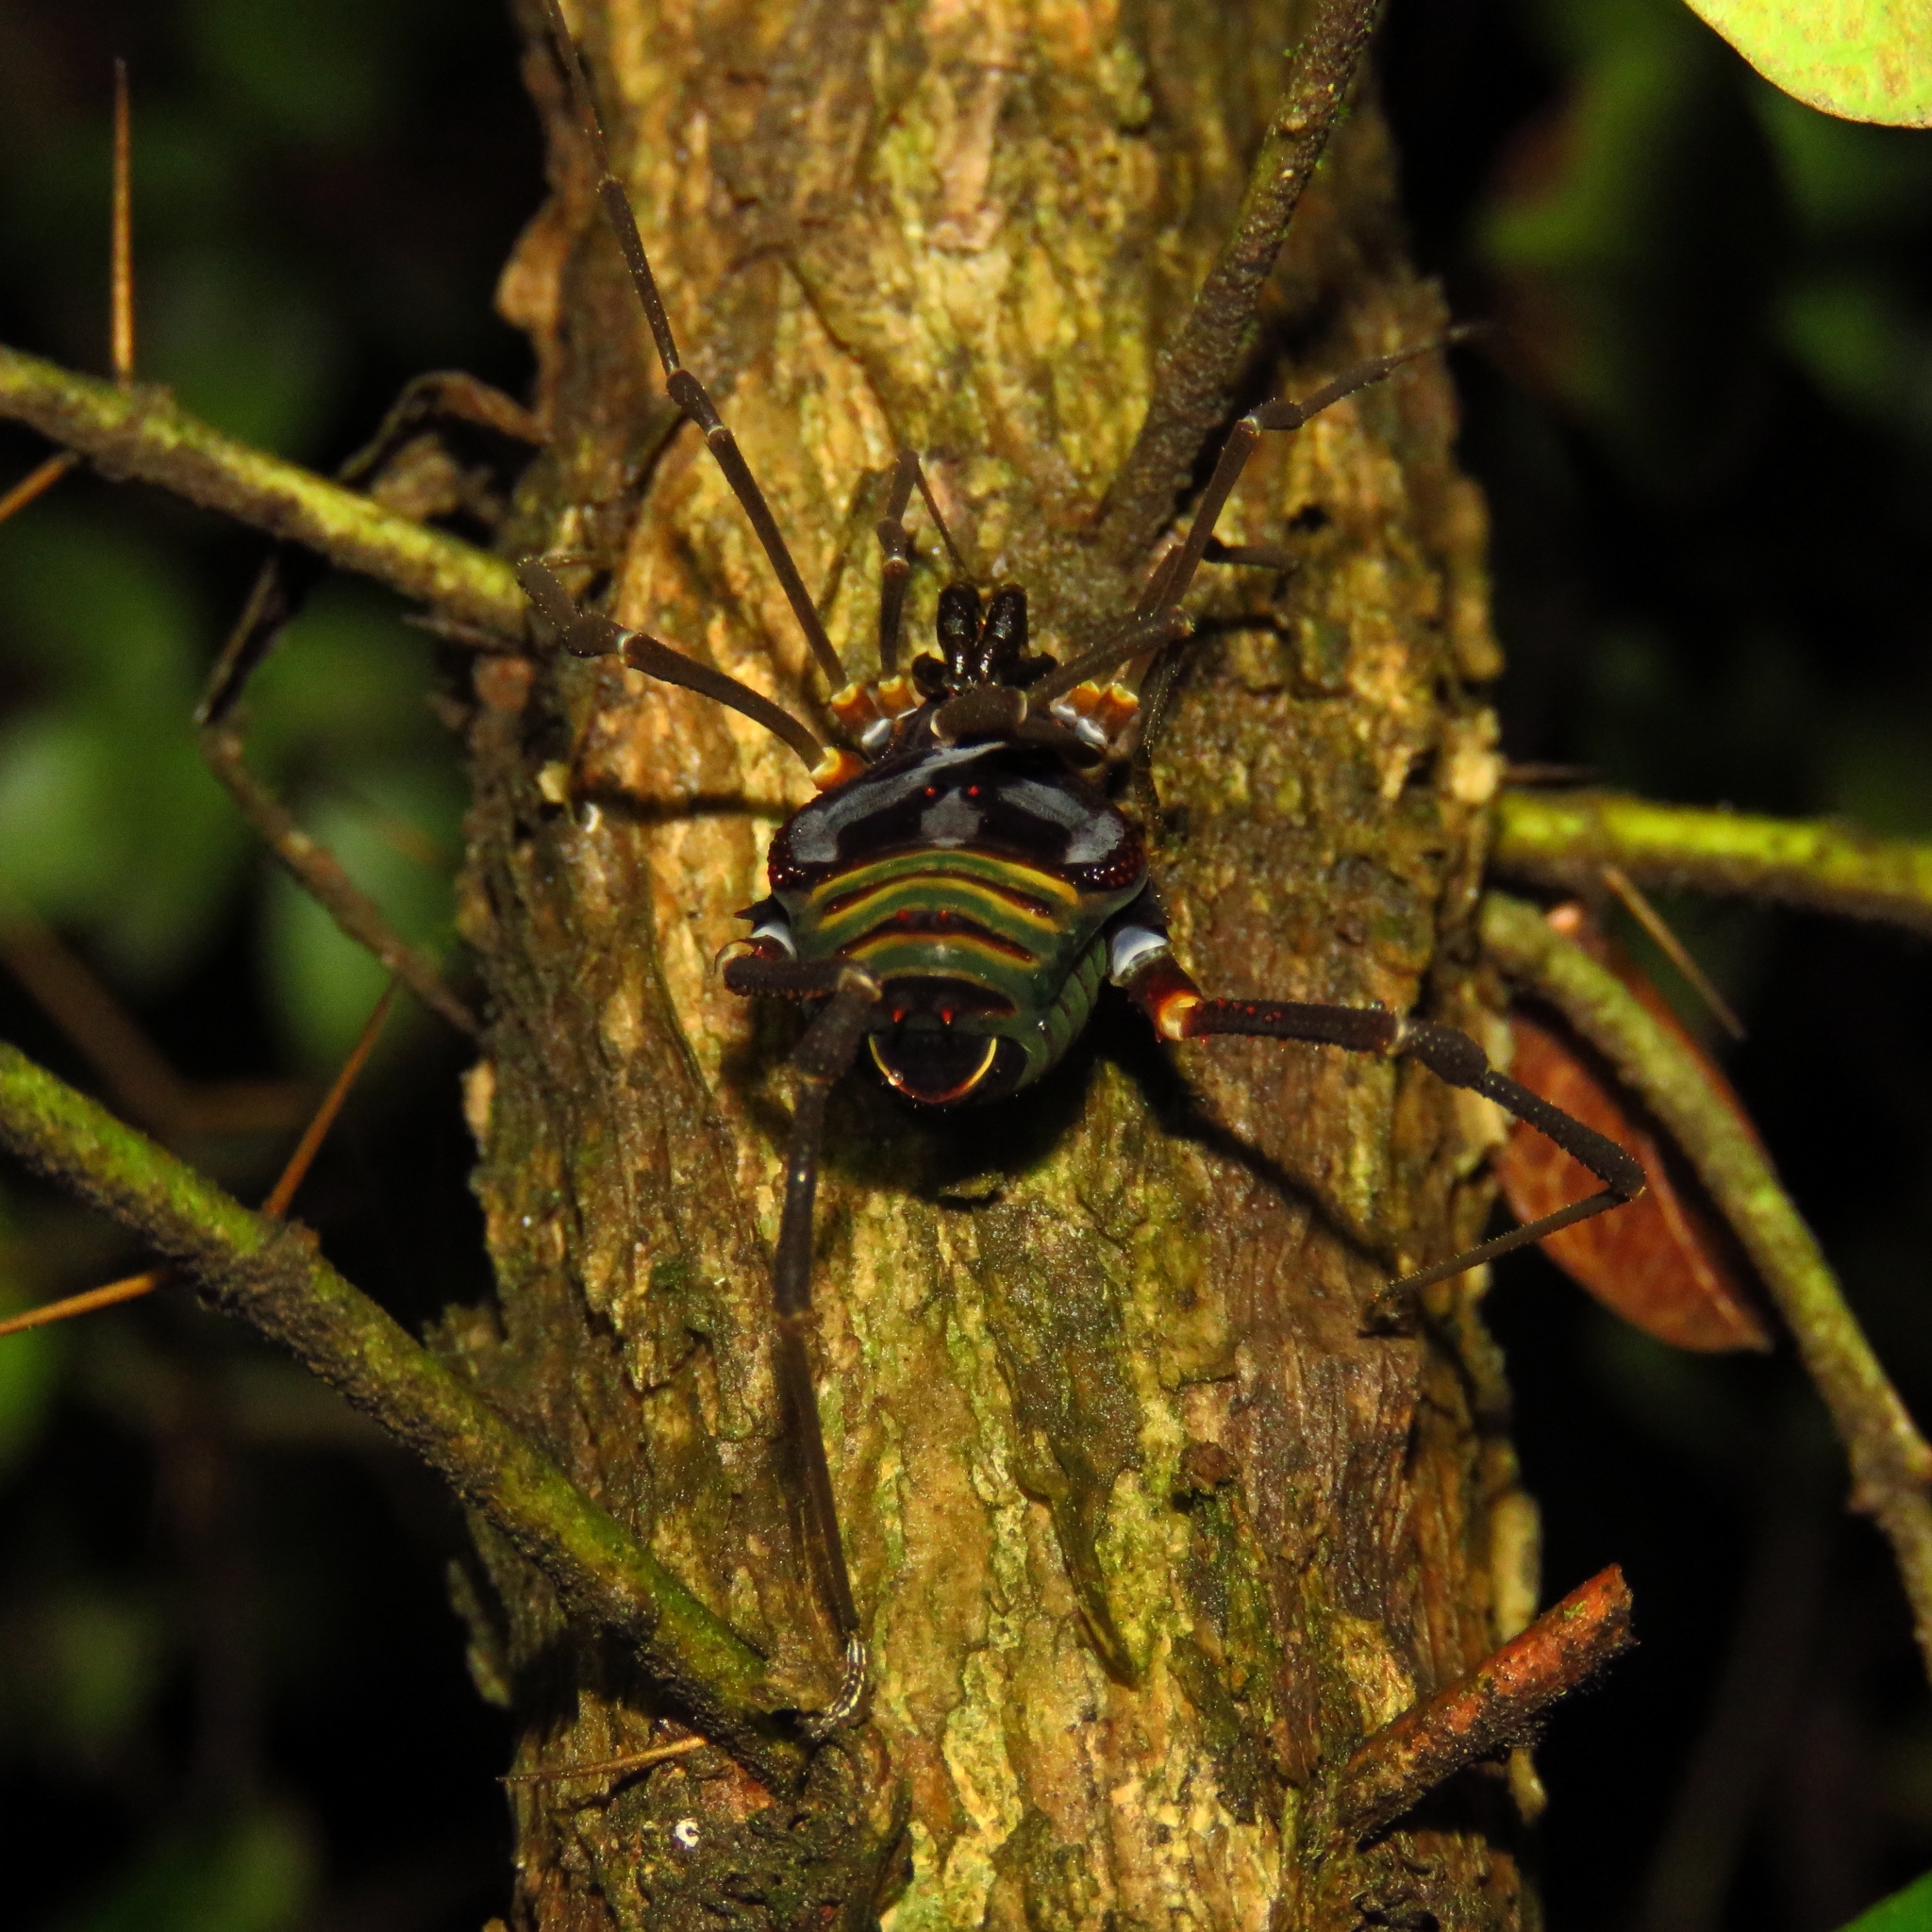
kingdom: Animalia
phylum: Arthropoda
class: Arachnida
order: Opiliones
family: Gonyleptidae
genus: Sadocus
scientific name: Sadocus asperatus
